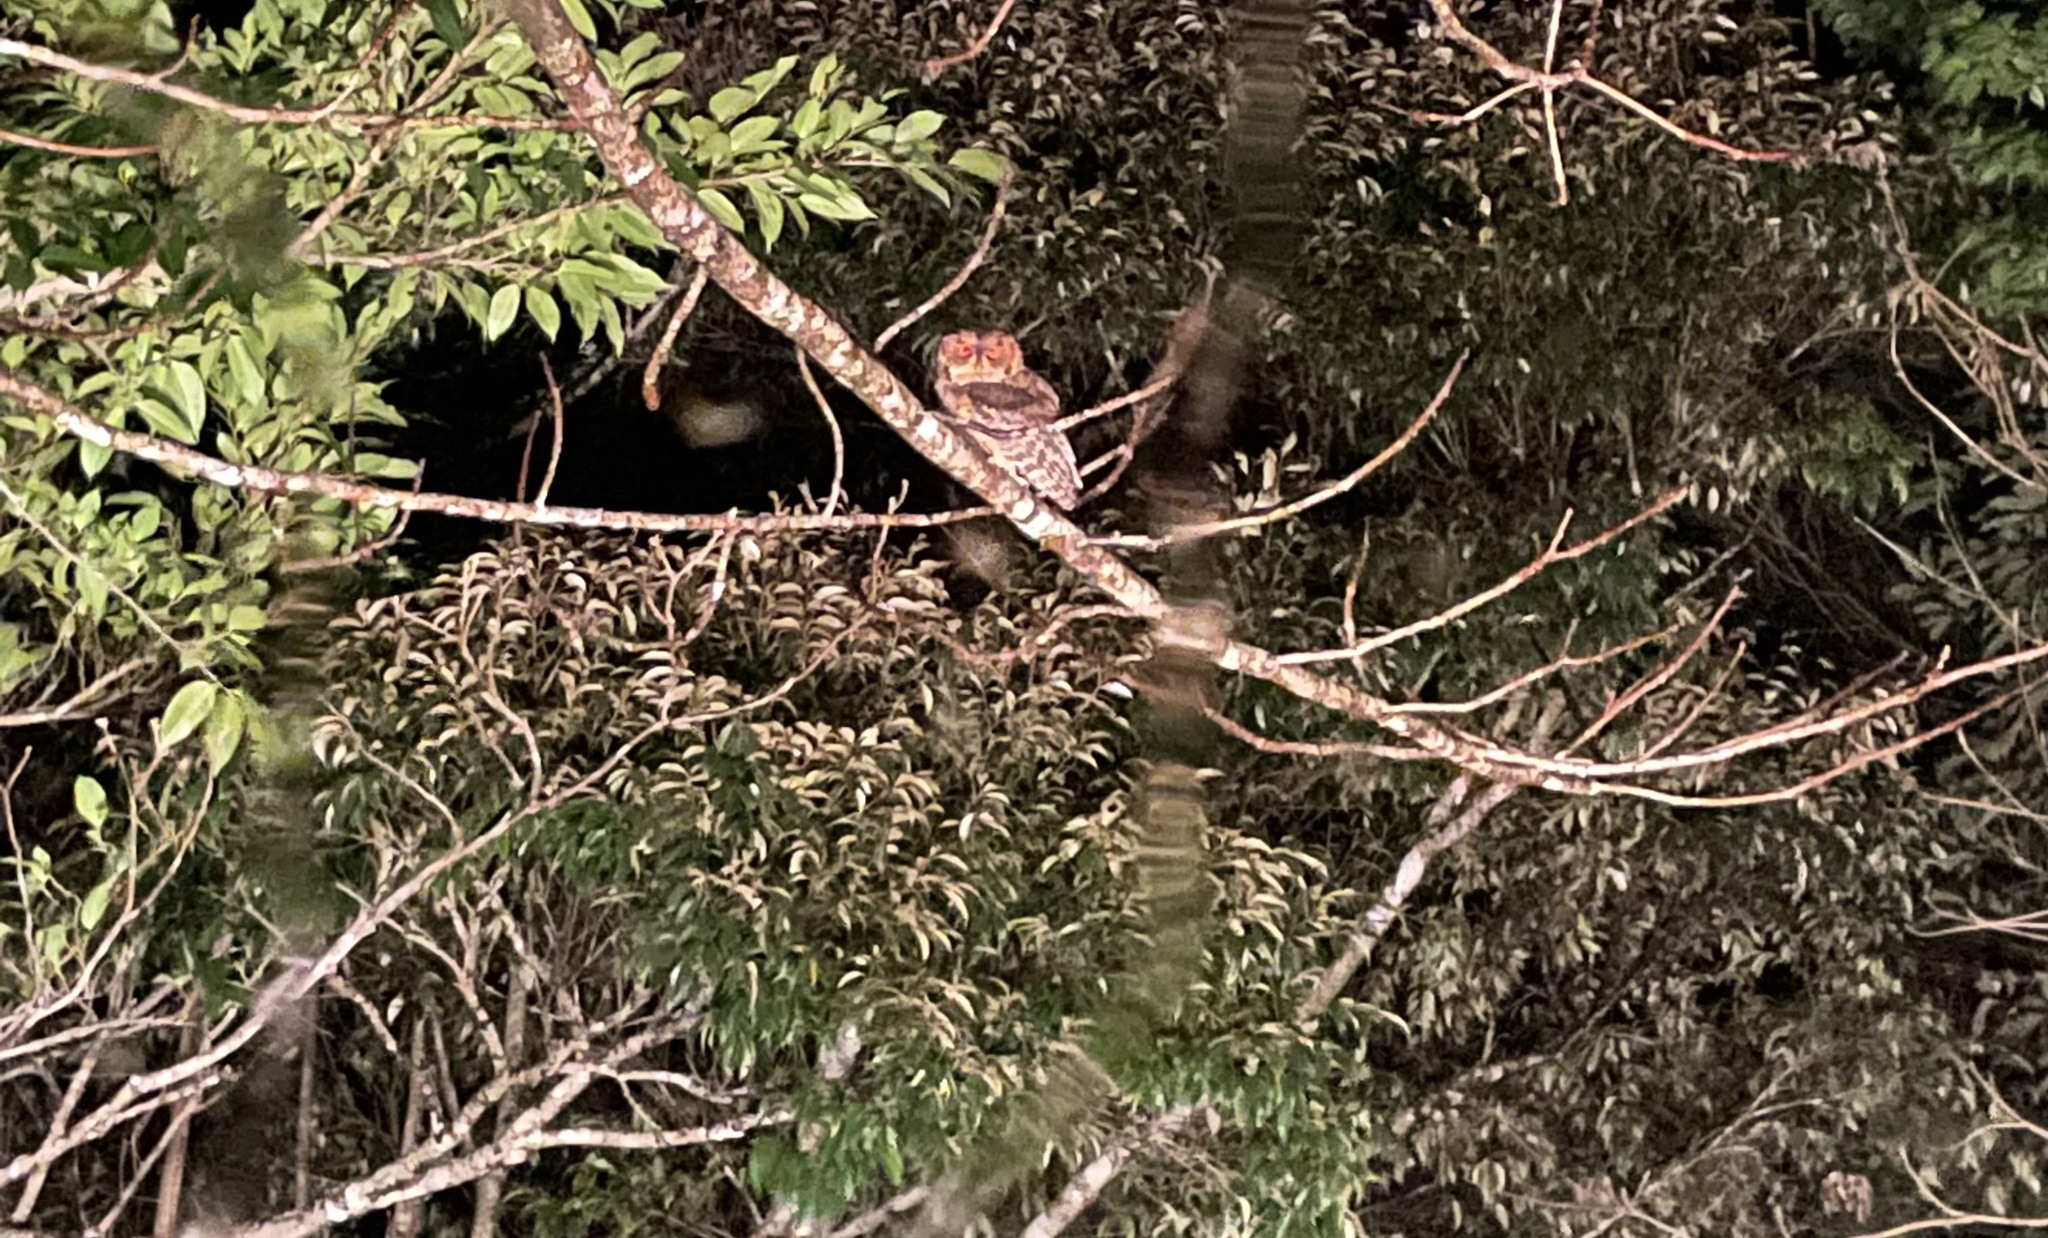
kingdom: Animalia
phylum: Chordata
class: Aves
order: Strigiformes
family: Strigidae
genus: Otus
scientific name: Otus semitorques
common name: Japanese scops owl
